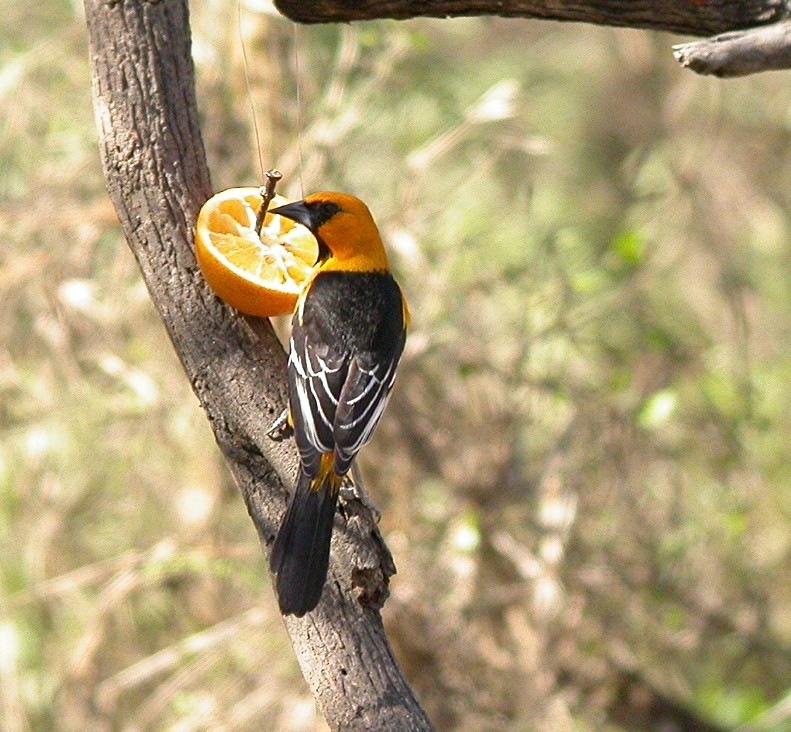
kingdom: Animalia
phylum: Chordata
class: Aves
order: Passeriformes
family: Icteridae
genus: Icterus
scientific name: Icterus gularis
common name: Altamira oriole
